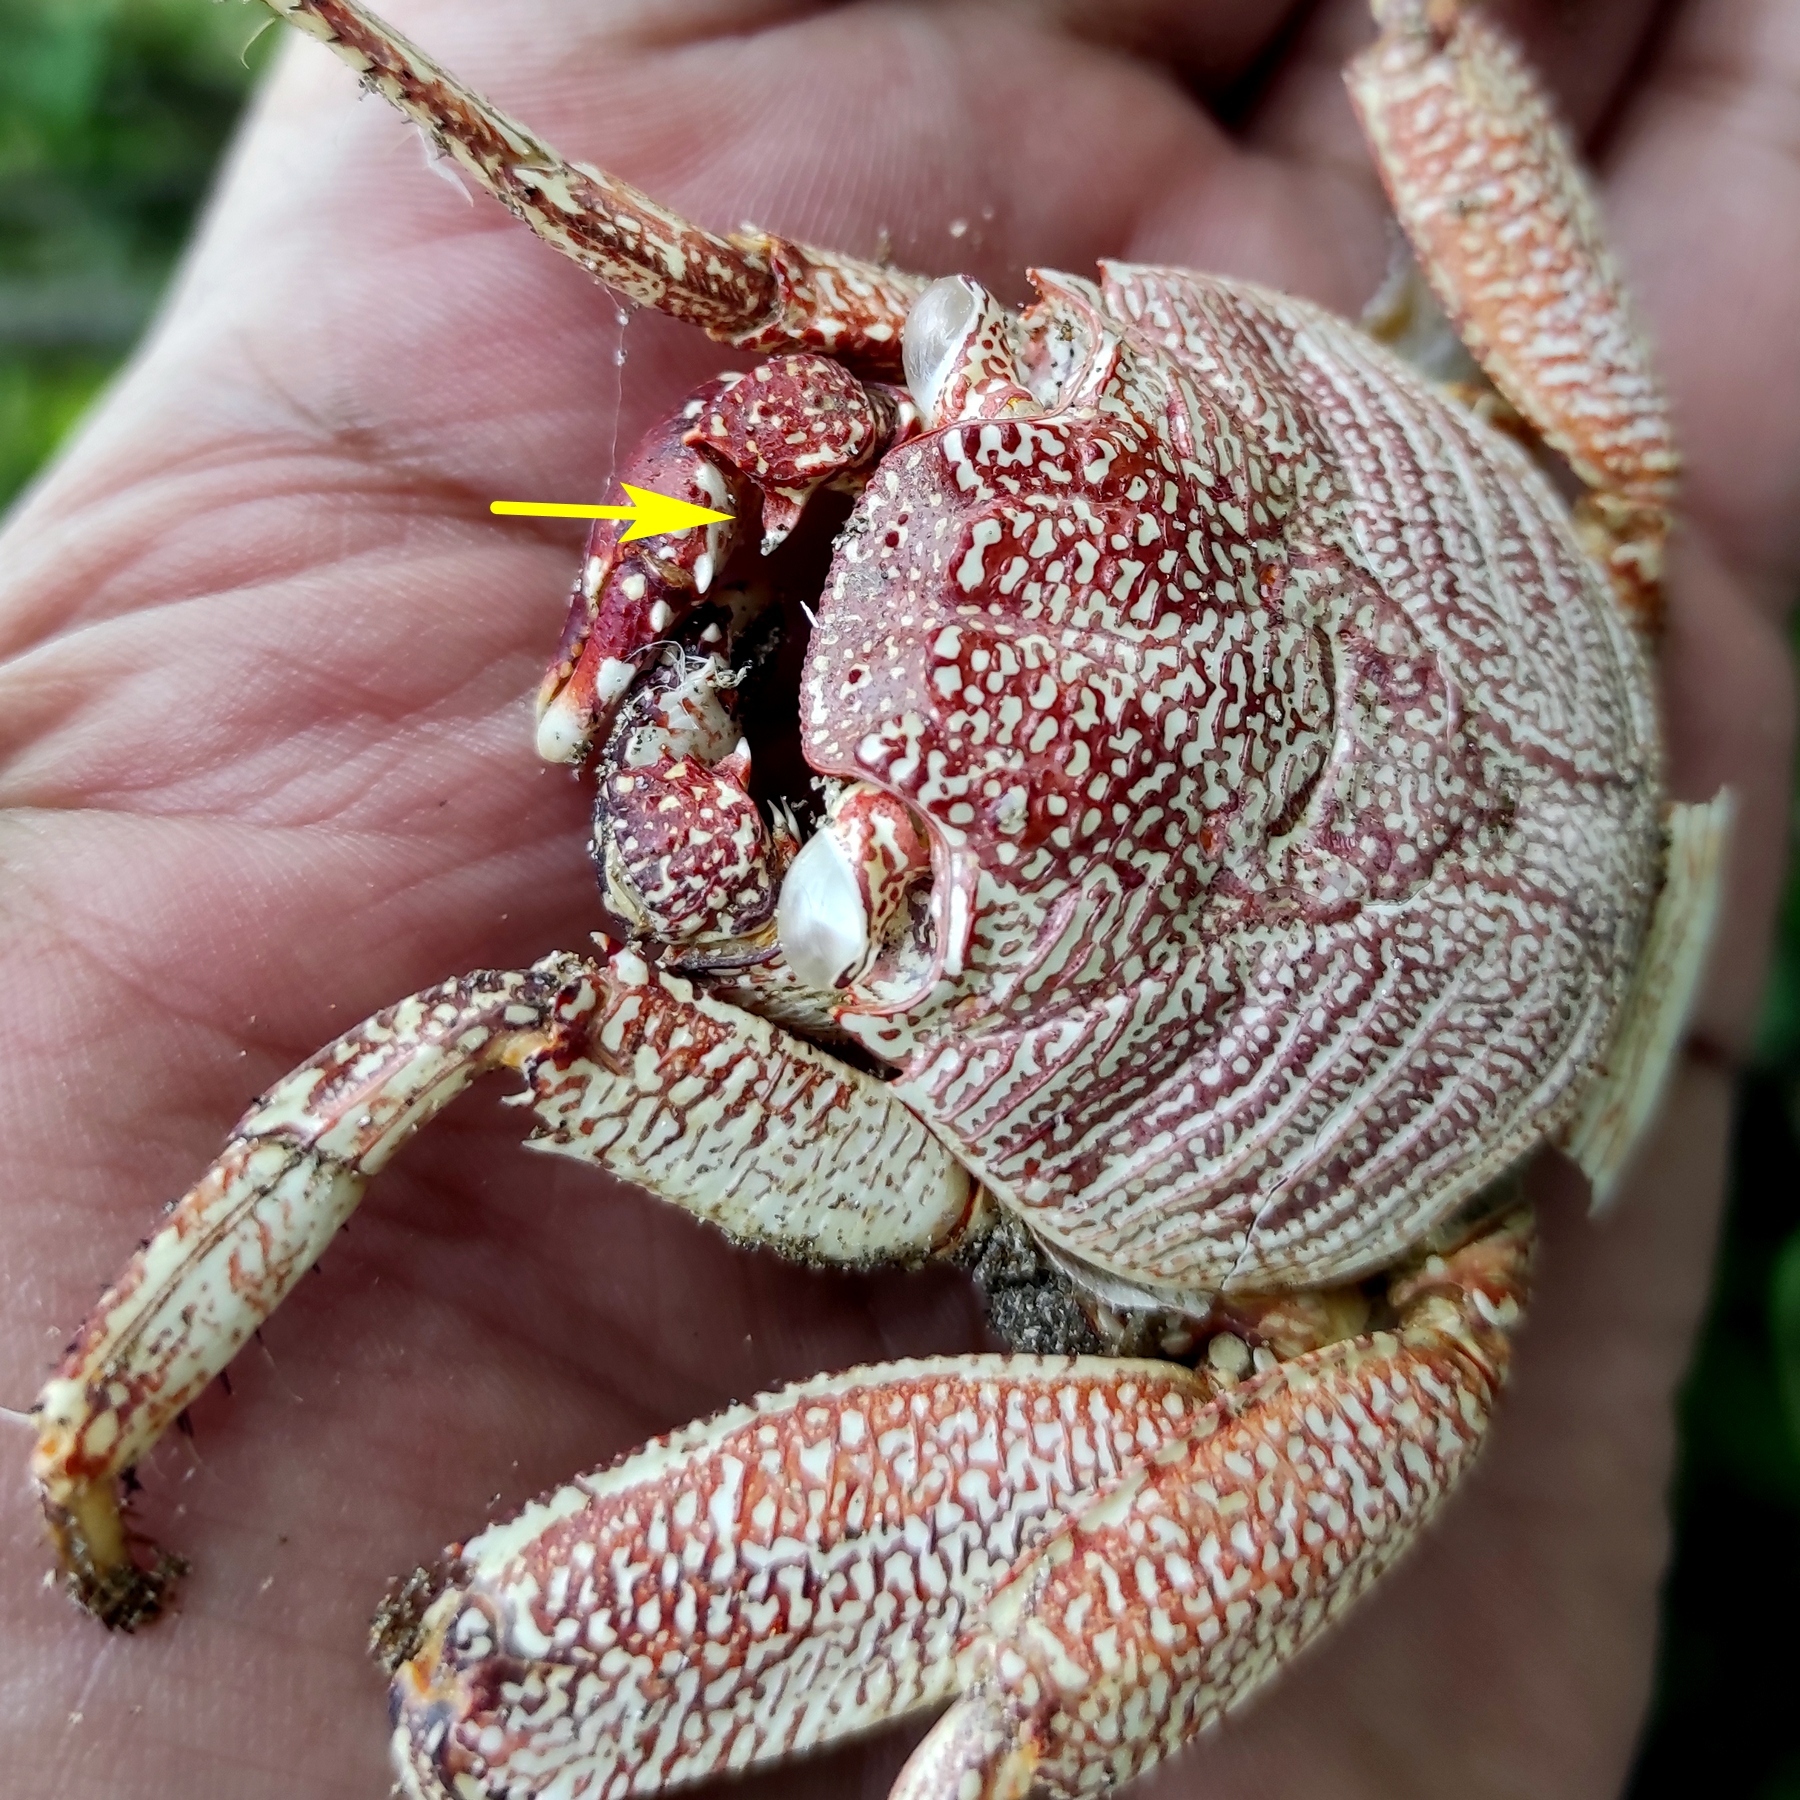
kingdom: Animalia
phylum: Arthropoda
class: Malacostraca
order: Decapoda
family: Grapsidae
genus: Grapsus
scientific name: Grapsus tenuicrustatus
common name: Natal lightfoot crab
